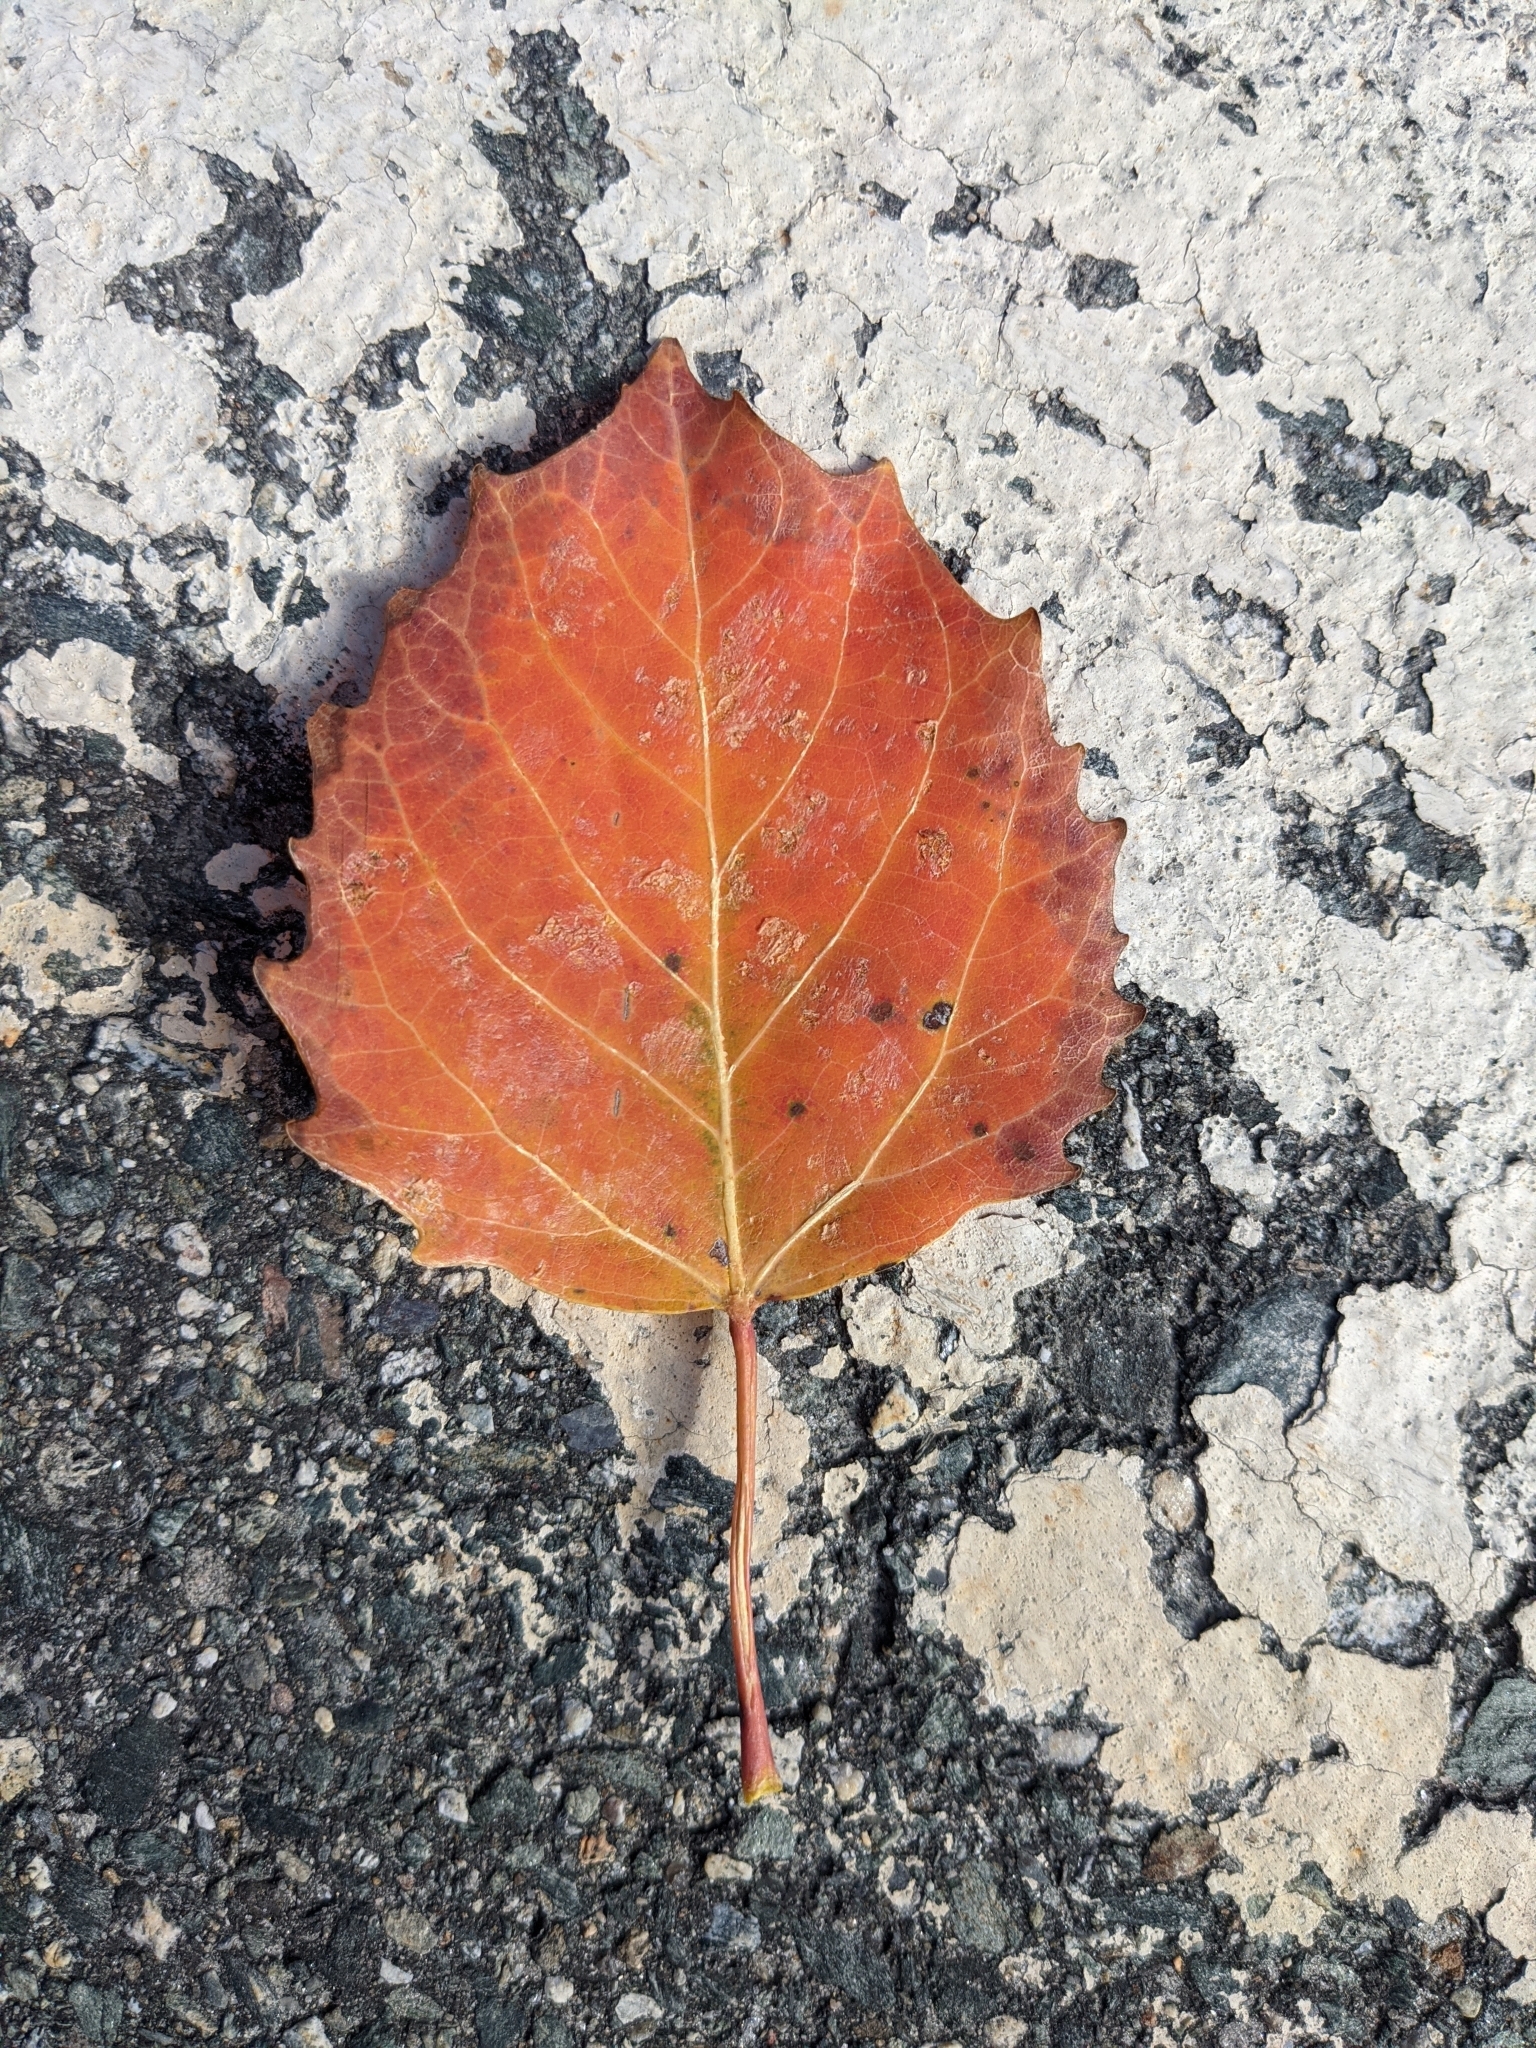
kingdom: Plantae
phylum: Tracheophyta
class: Magnoliopsida
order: Malpighiales
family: Salicaceae
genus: Populus
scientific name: Populus grandidentata
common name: Bigtooth aspen
